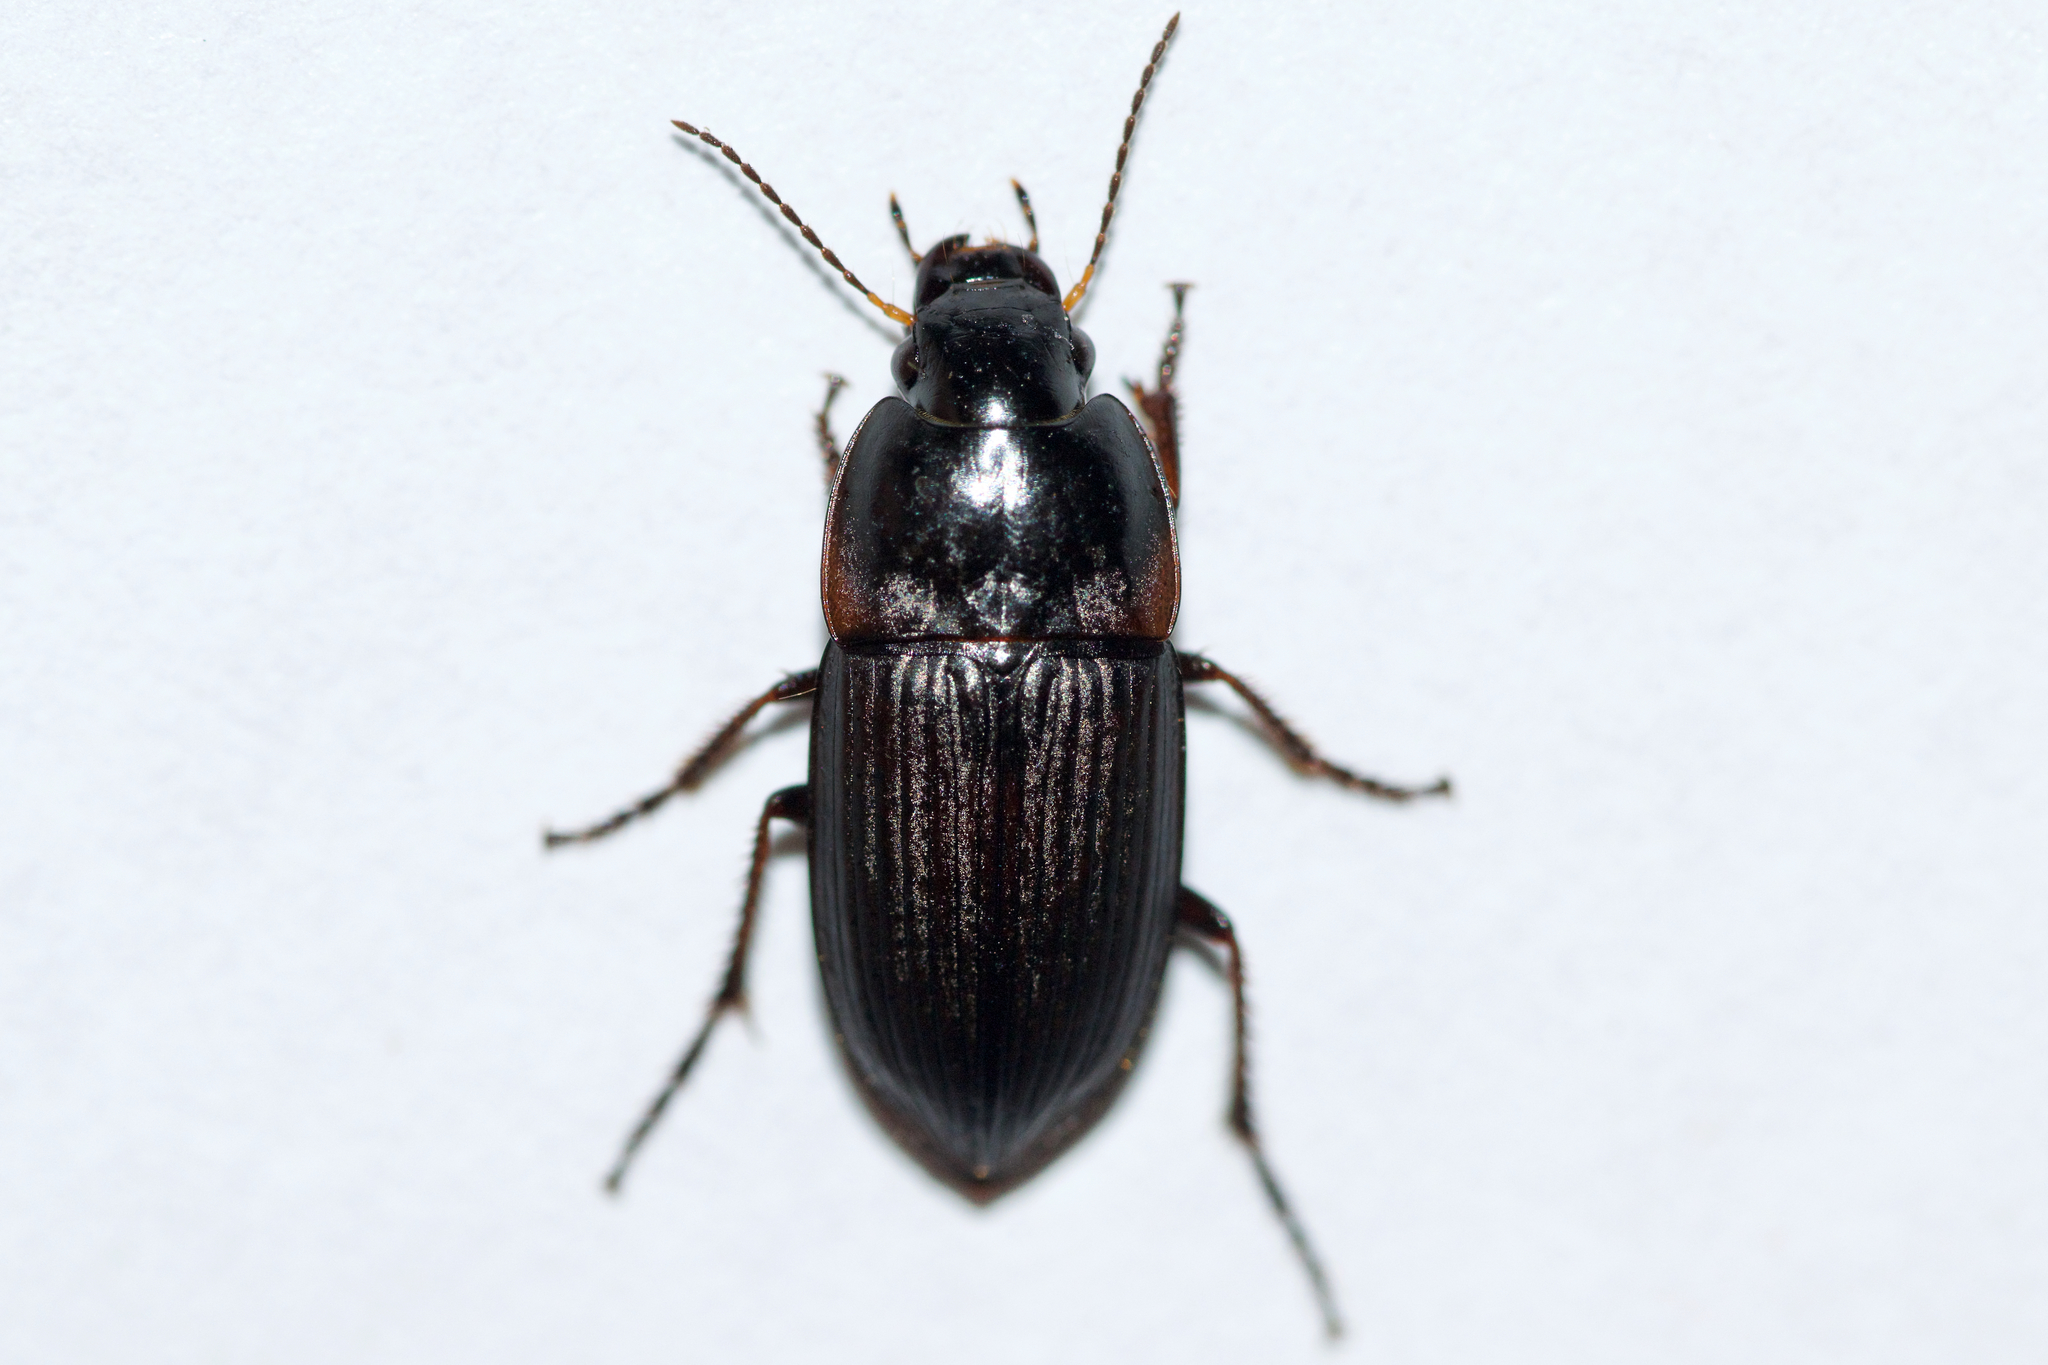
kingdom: Animalia
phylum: Arthropoda
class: Insecta
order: Coleoptera
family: Carabidae
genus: Anisodactylus
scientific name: Anisodactylus rusticus
